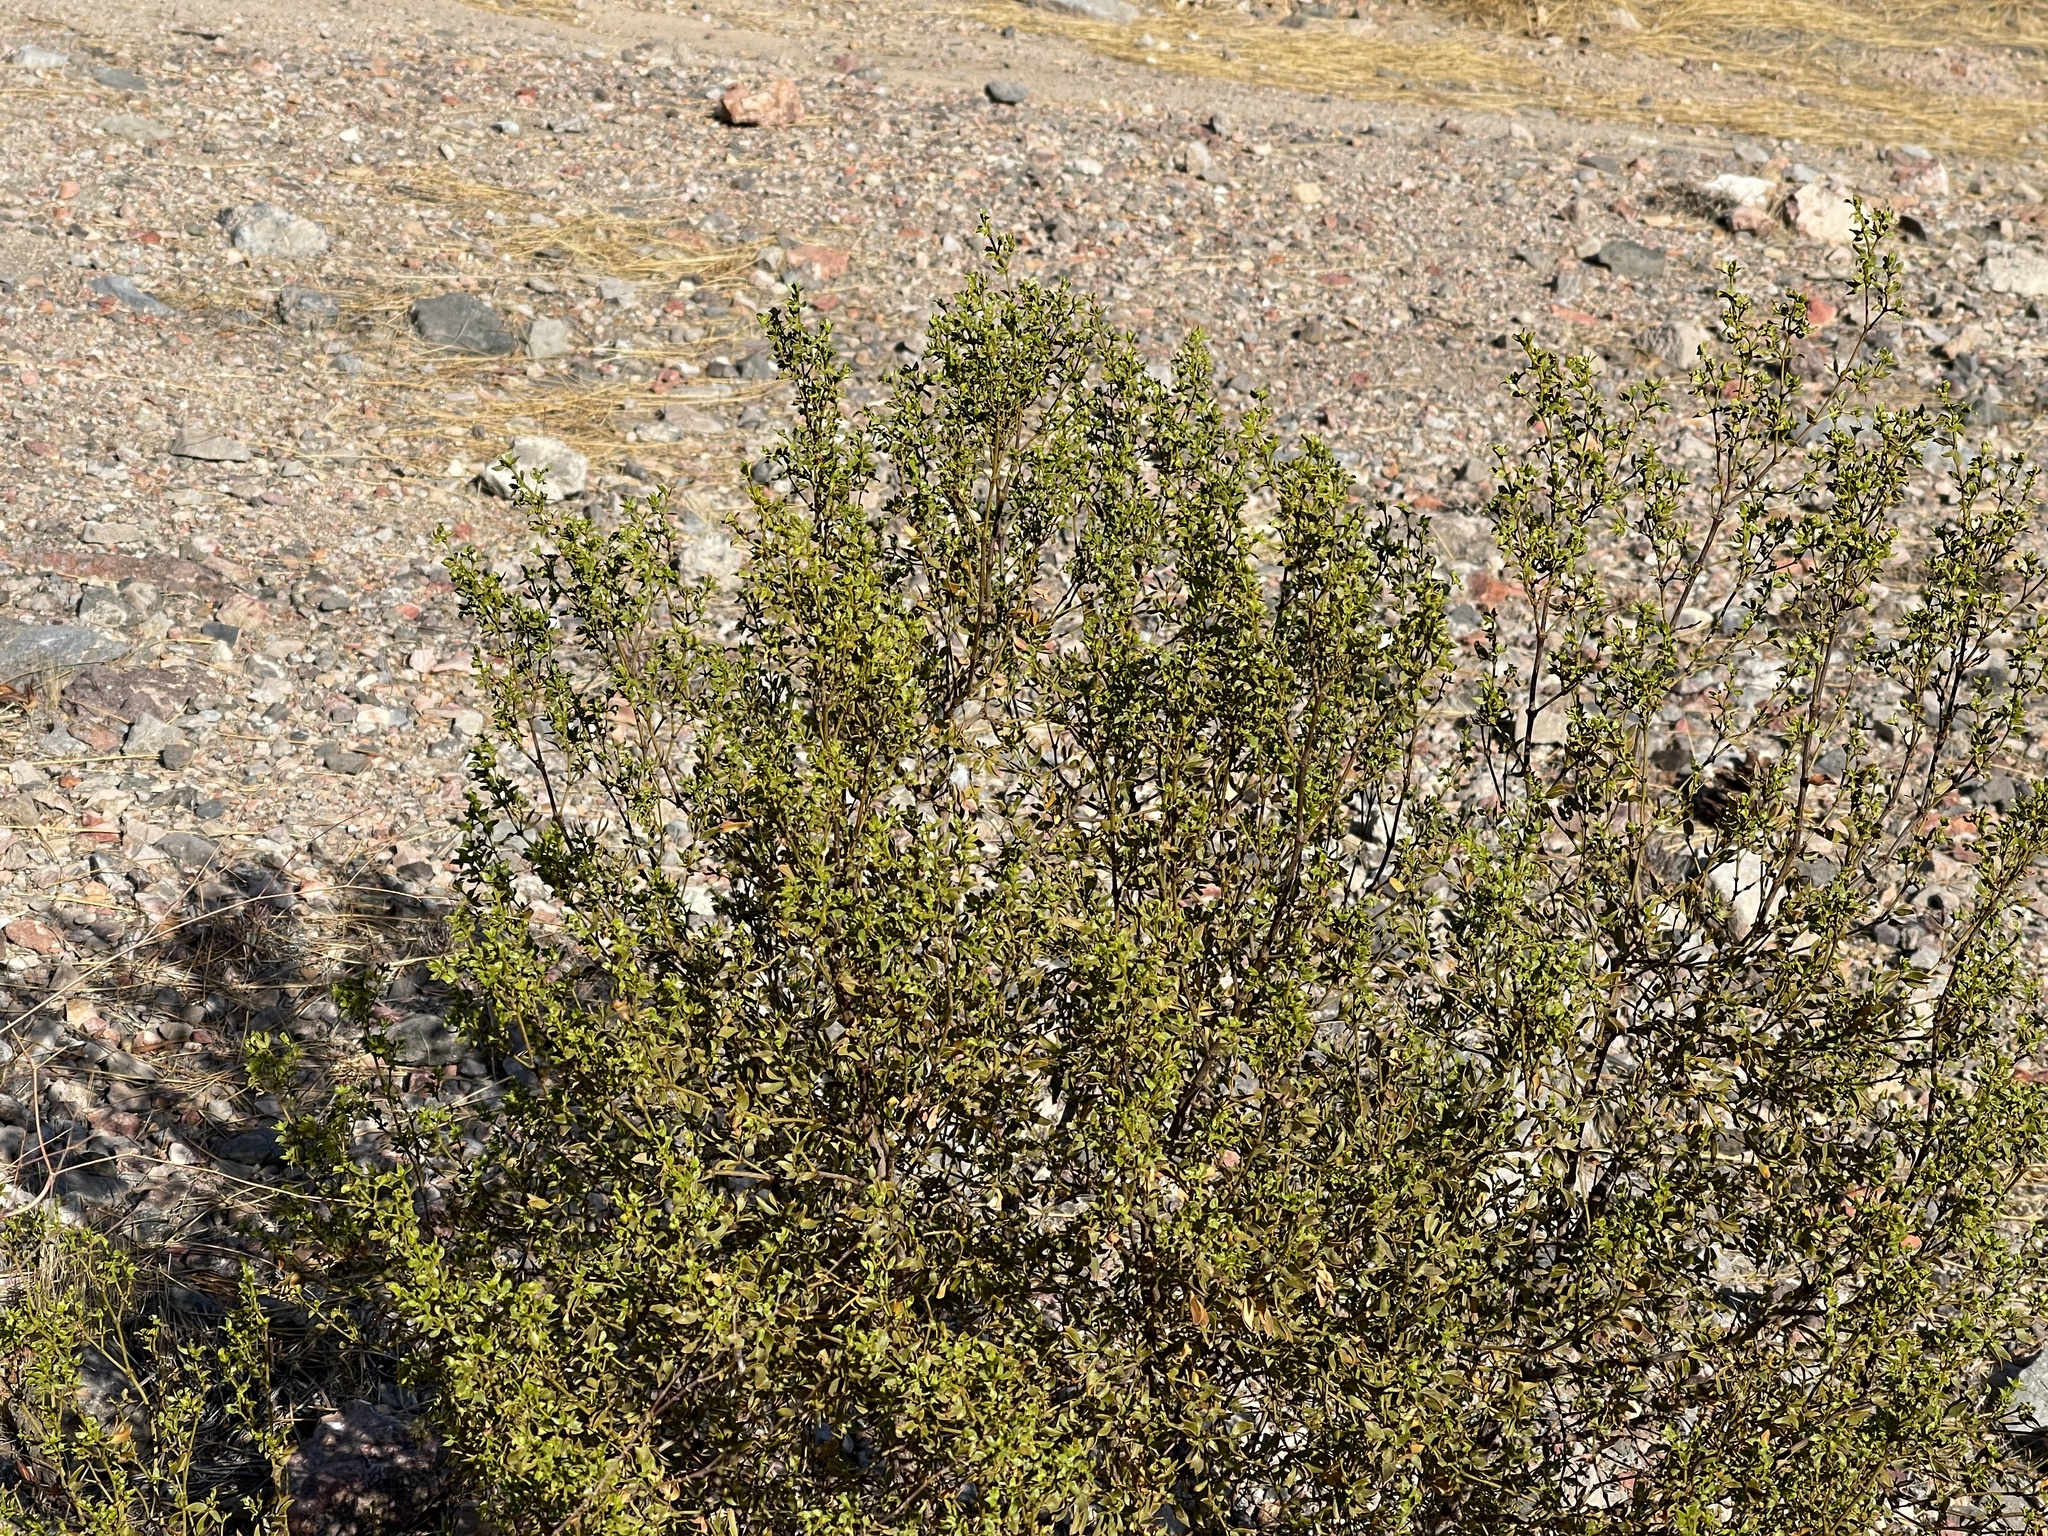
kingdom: Plantae
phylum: Tracheophyta
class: Magnoliopsida
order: Zygophyllales
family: Zygophyllaceae
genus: Larrea
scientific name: Larrea tridentata
